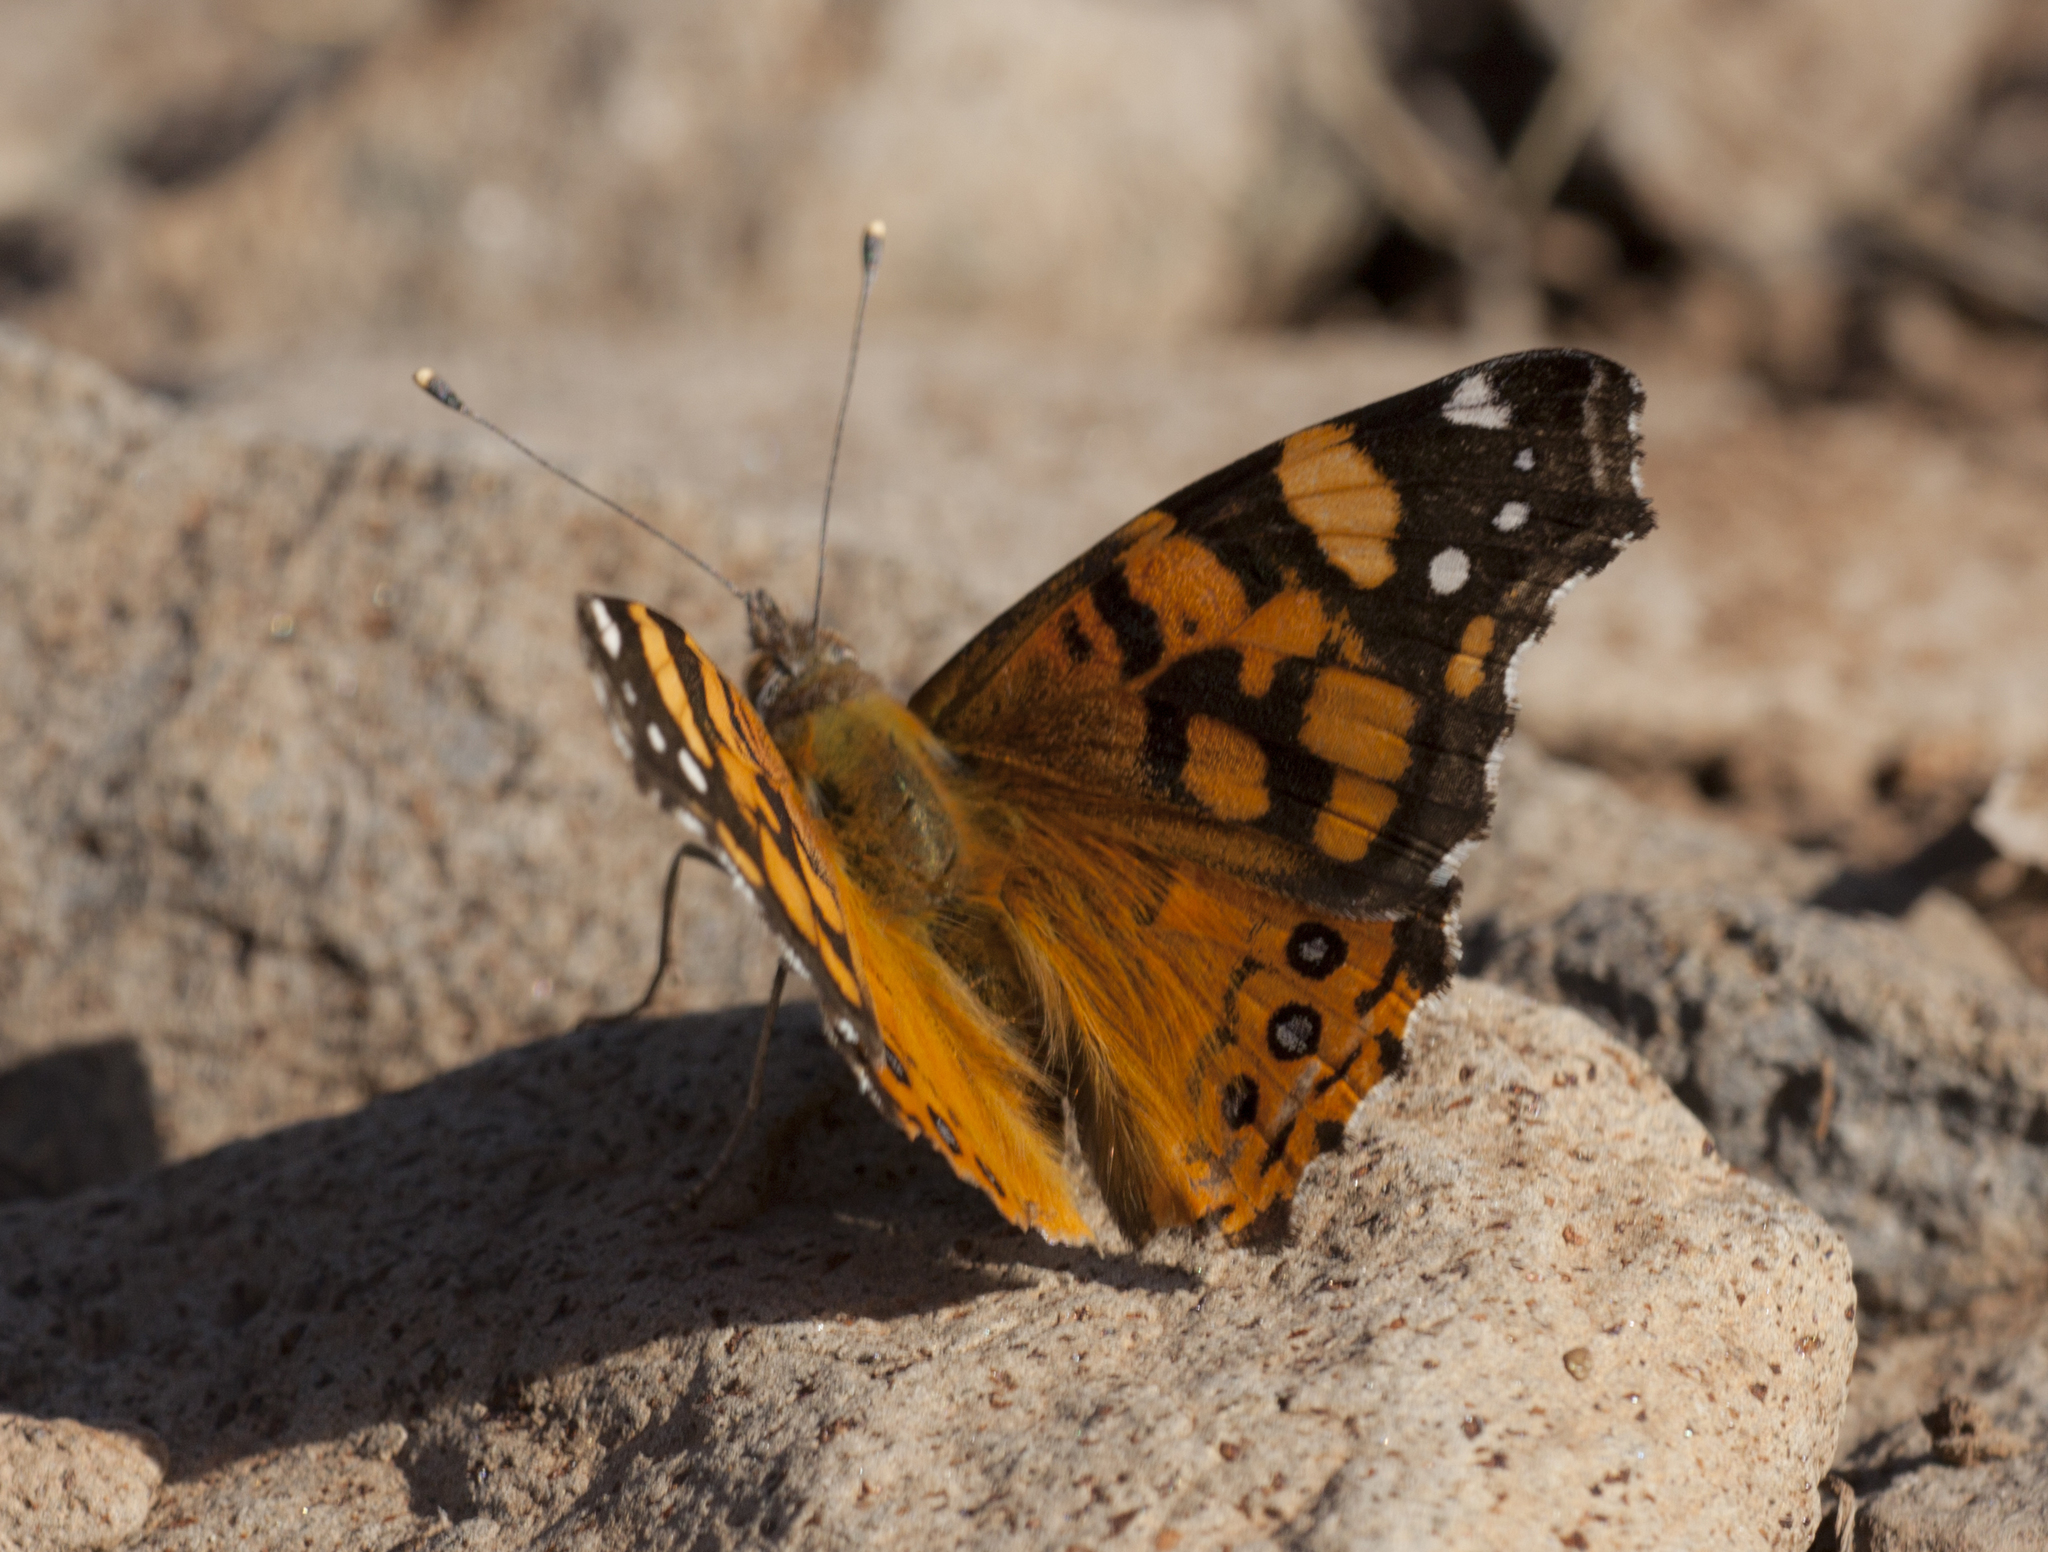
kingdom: Animalia
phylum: Arthropoda
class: Insecta
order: Lepidoptera
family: Nymphalidae
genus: Vanessa
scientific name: Vanessa annabella
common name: West coast lady
